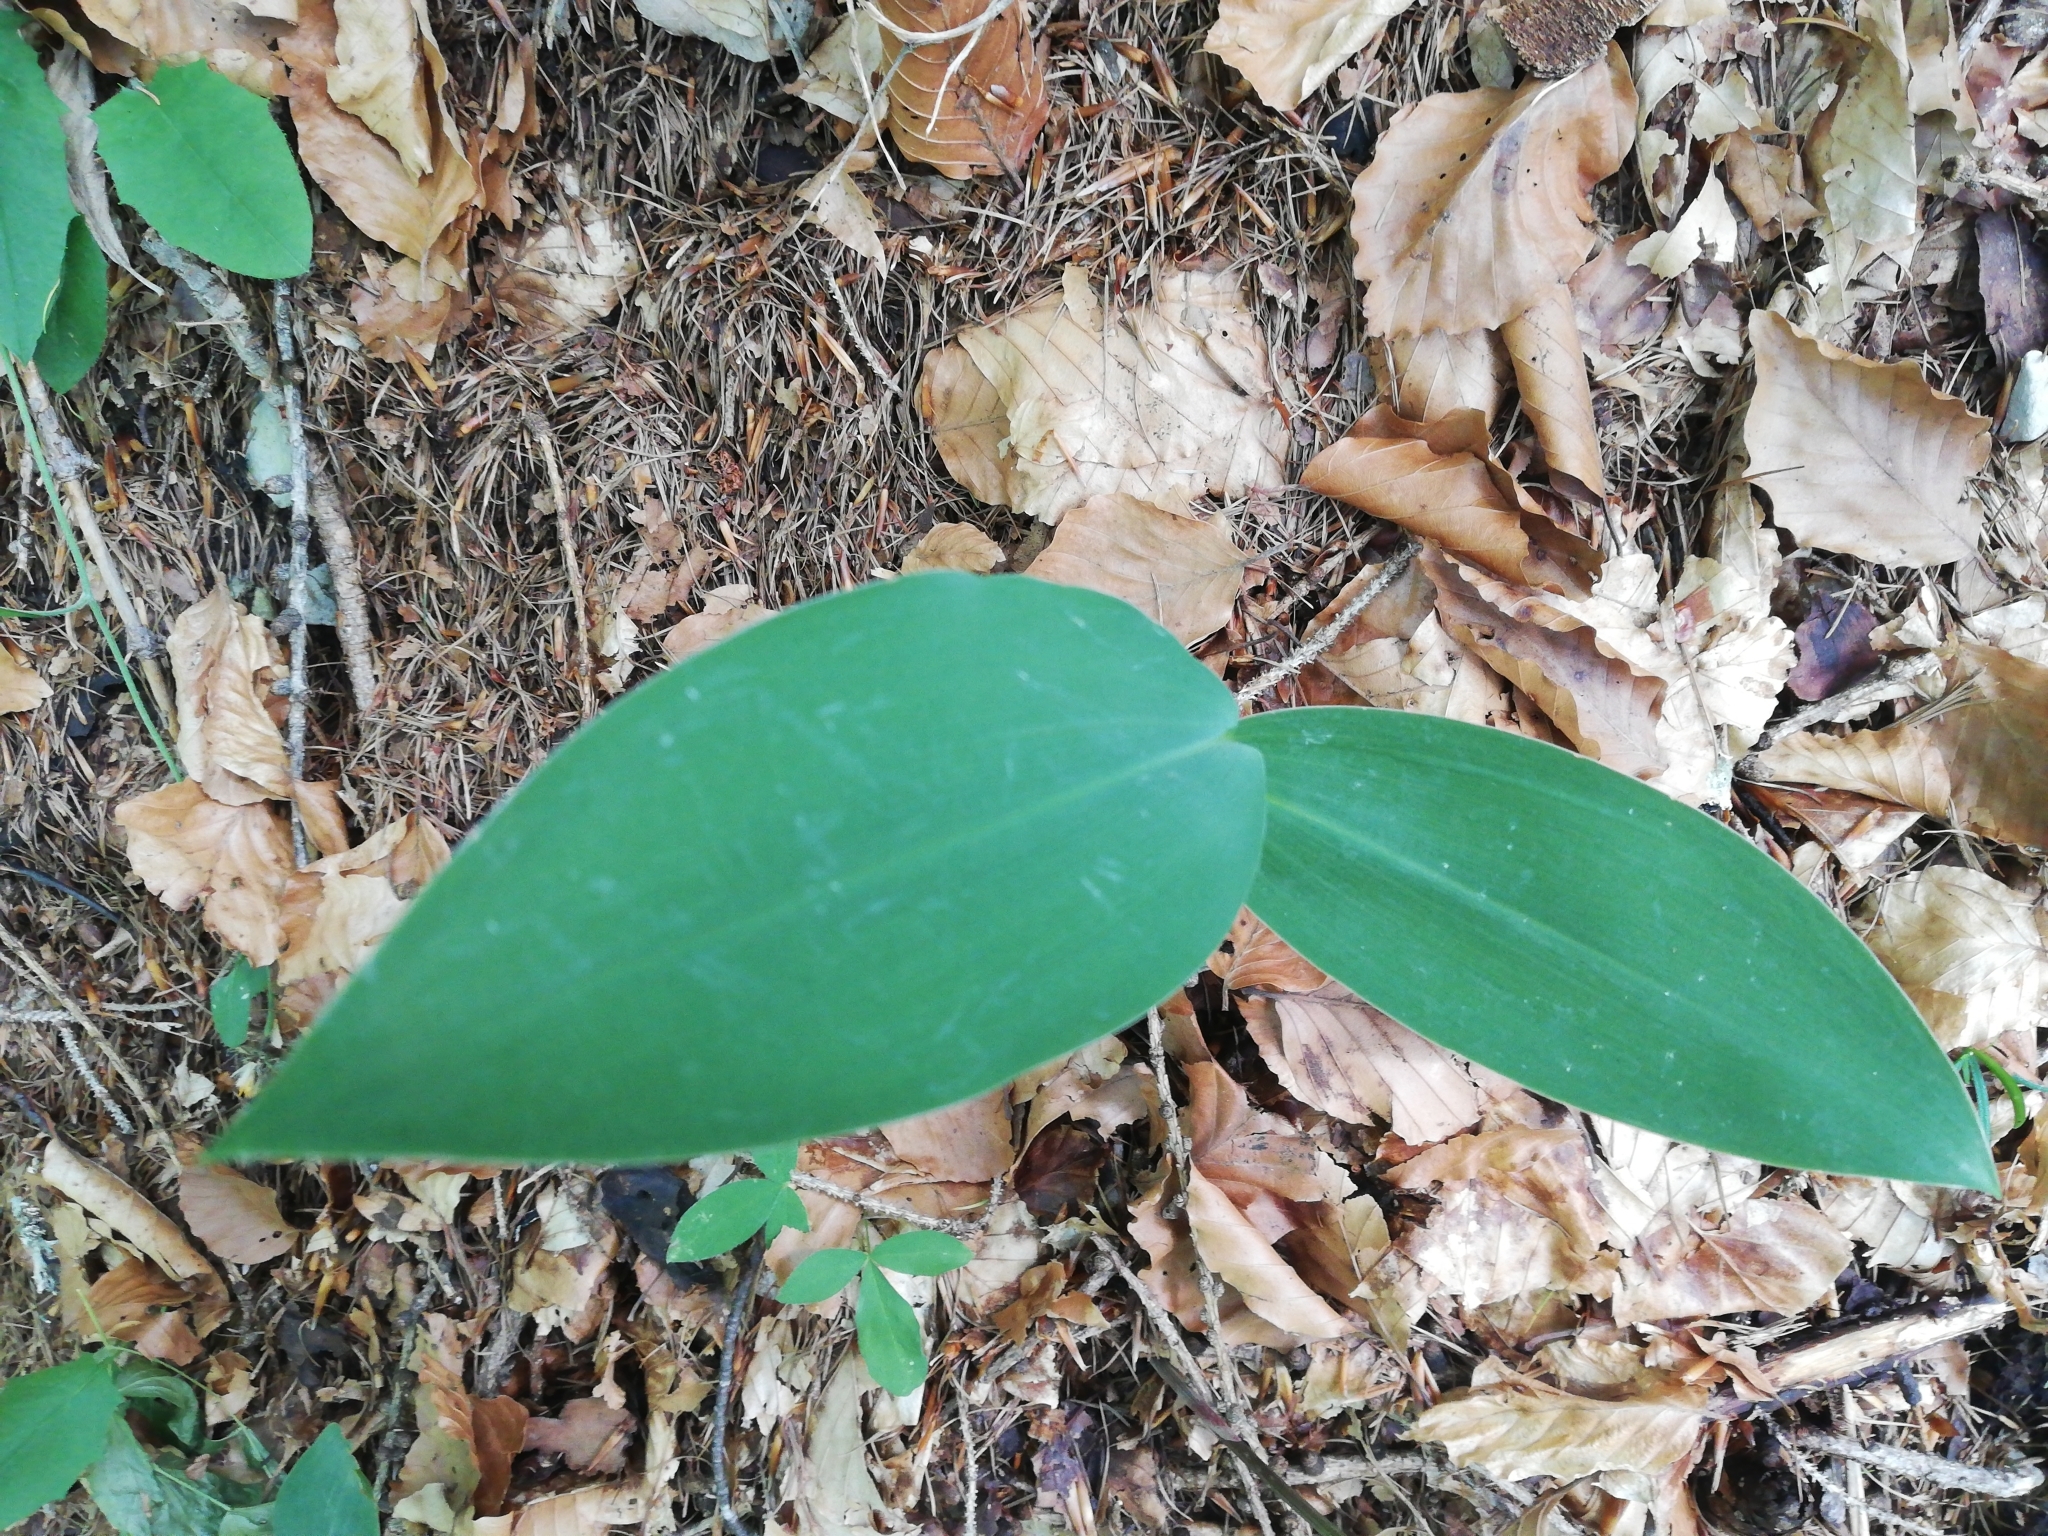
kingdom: Plantae
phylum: Tracheophyta
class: Liliopsida
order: Asparagales
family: Asparagaceae
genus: Convallaria
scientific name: Convallaria majalis
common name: Lily-of-the-valley
